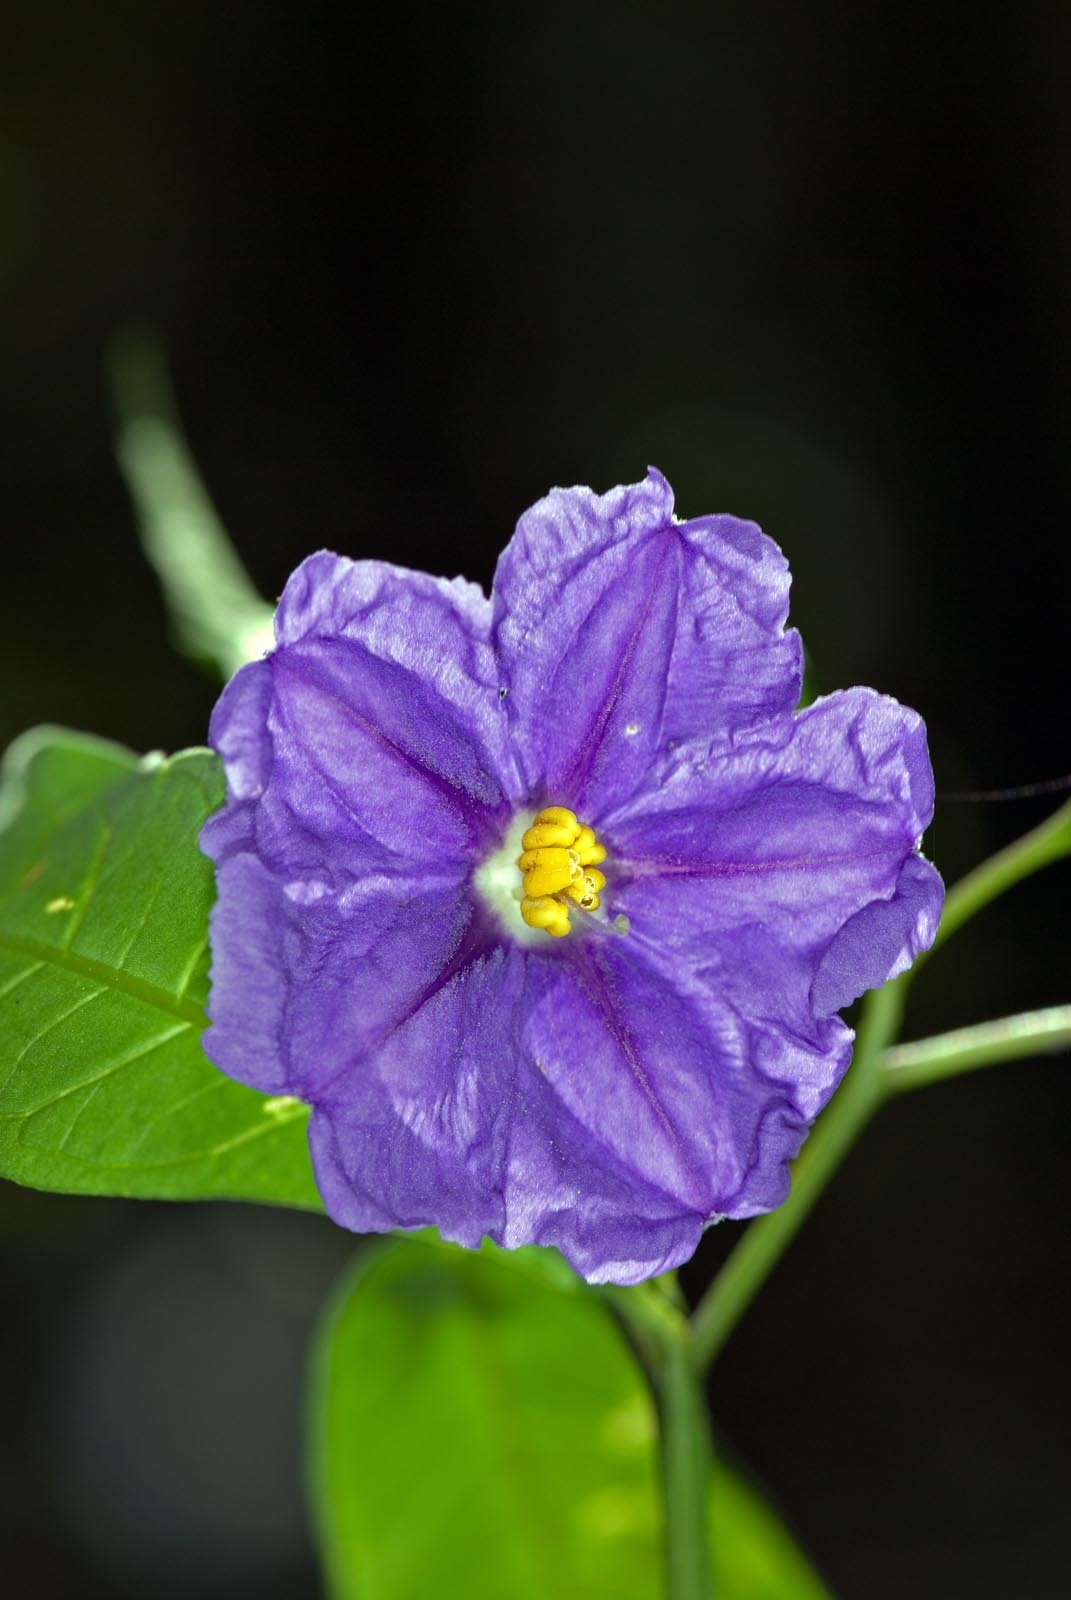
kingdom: Plantae
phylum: Tracheophyta
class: Magnoliopsida
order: Solanales
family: Solanaceae
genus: Solanum
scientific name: Solanum laciniatum
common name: Kangaroo-apple
